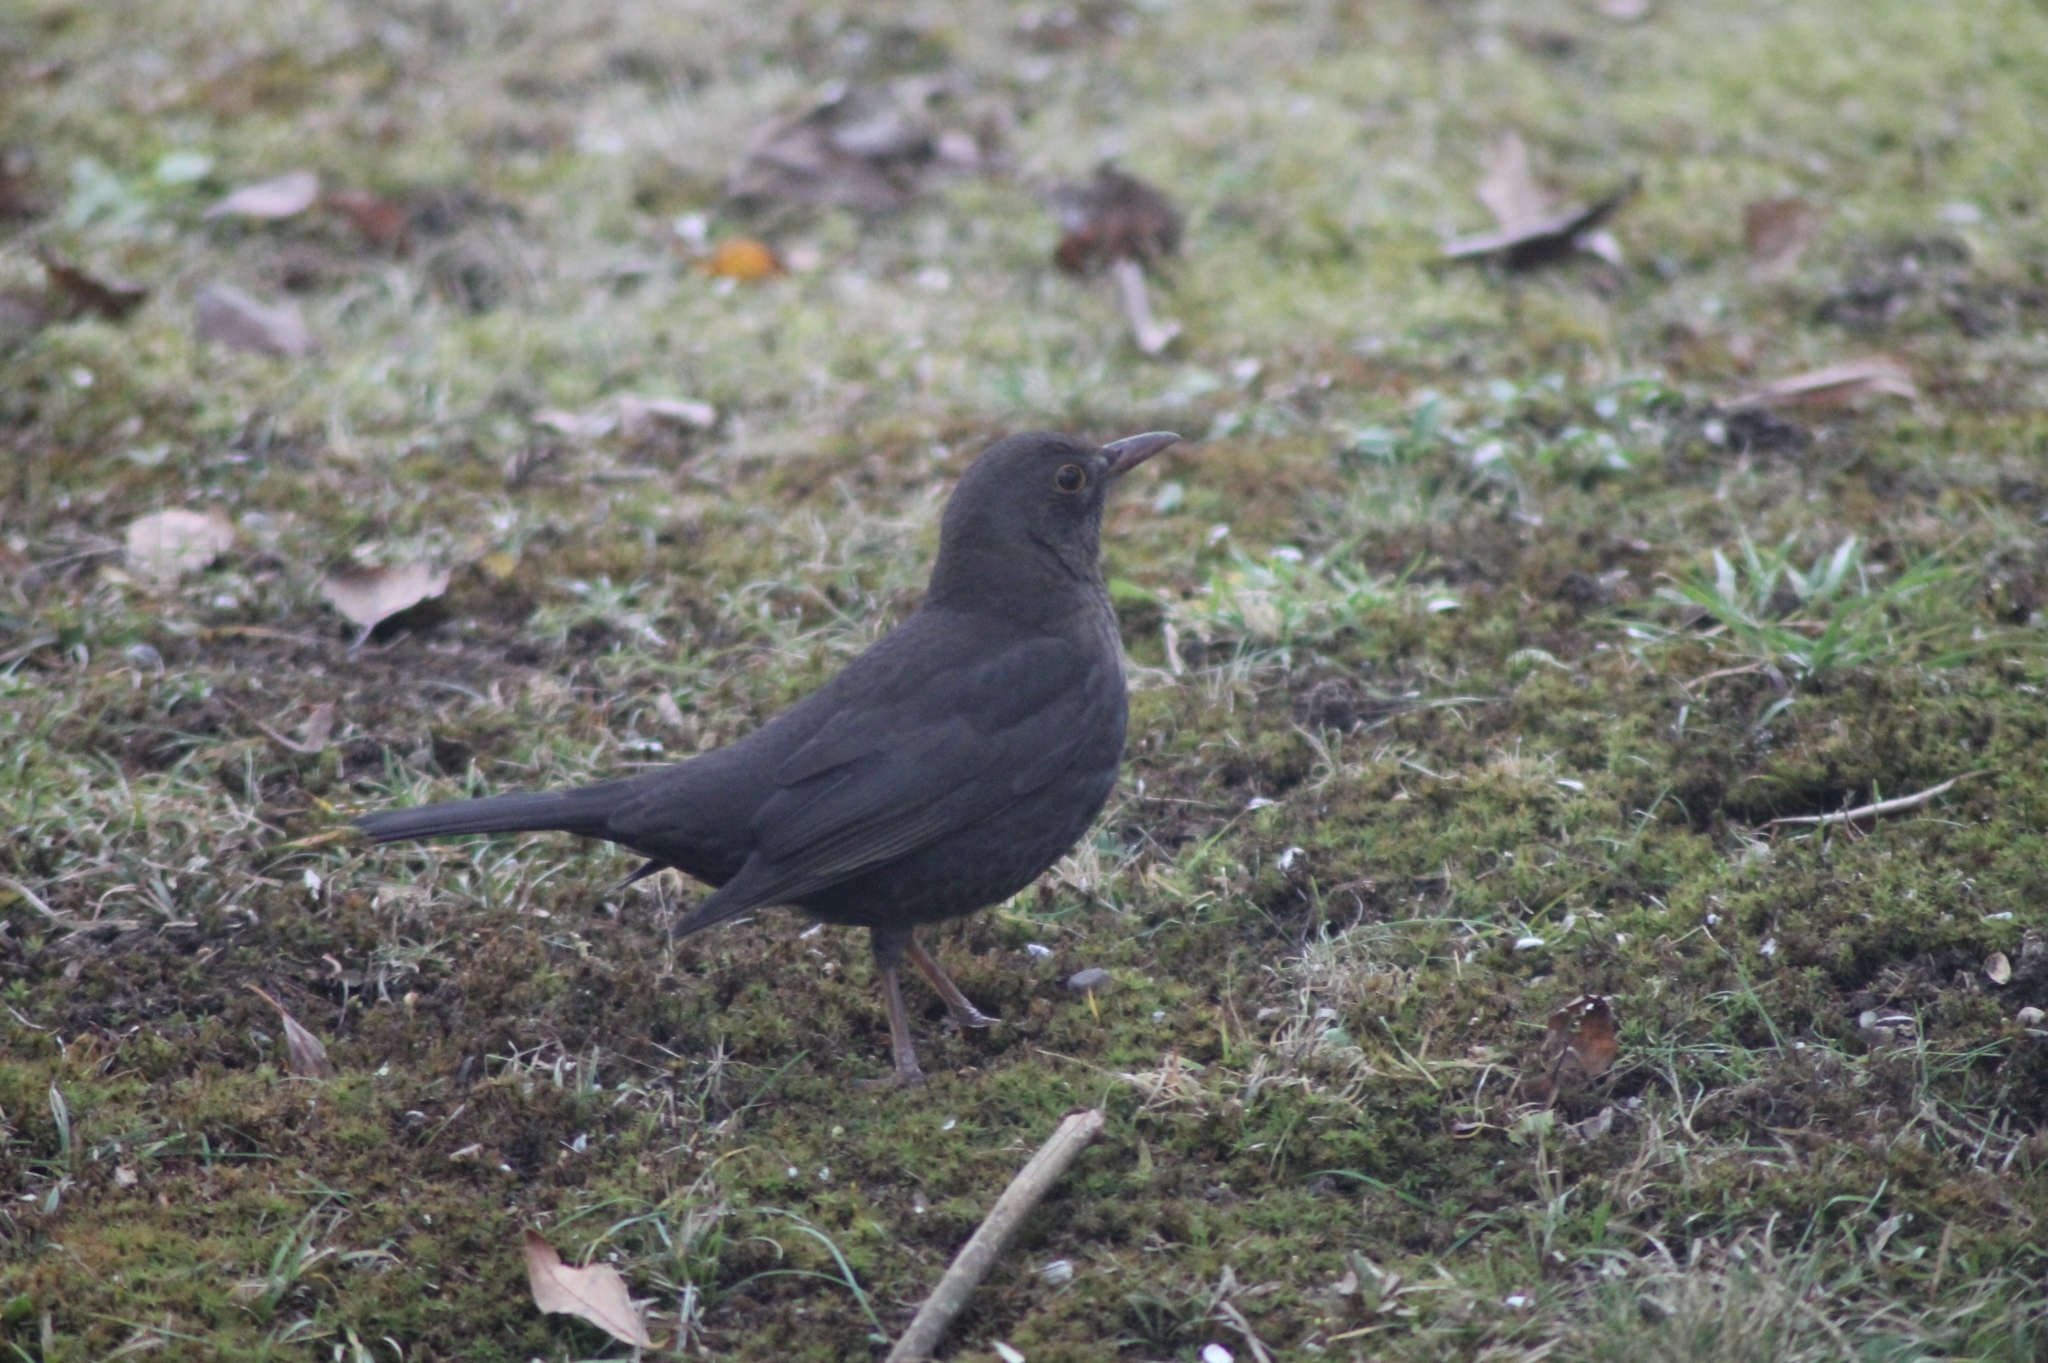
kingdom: Animalia
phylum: Chordata
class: Aves
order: Passeriformes
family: Turdidae
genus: Turdus
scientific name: Turdus merula
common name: Common blackbird
